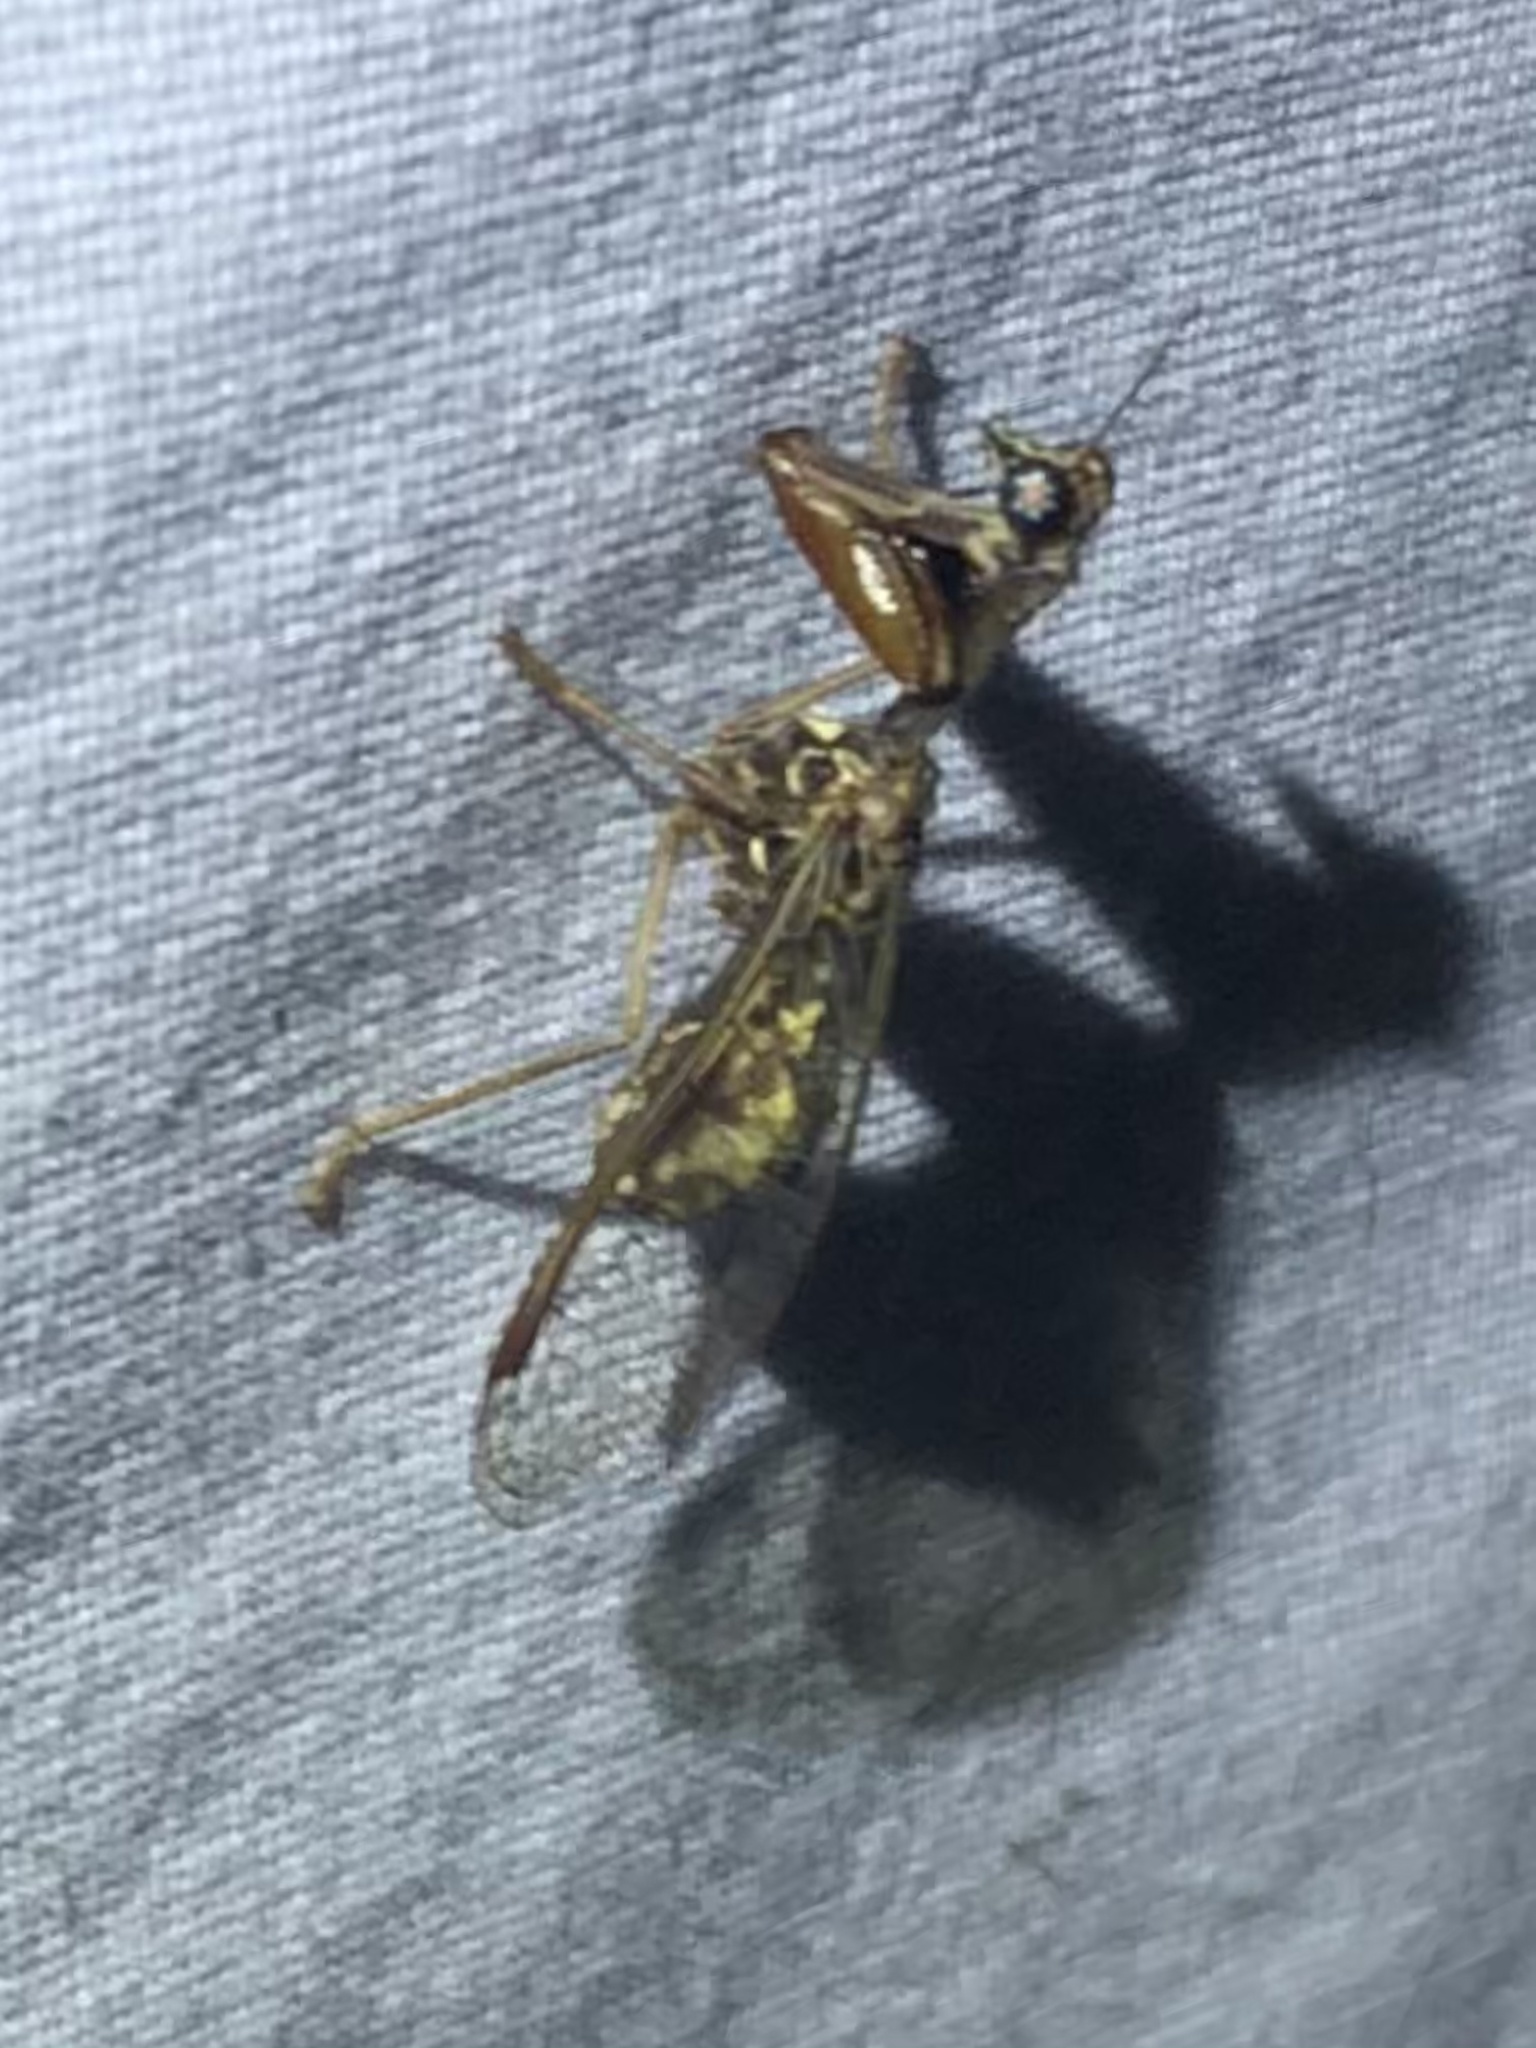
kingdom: Animalia
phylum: Arthropoda
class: Insecta
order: Neuroptera
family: Mantispidae
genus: Dicromantispa
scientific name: Dicromantispa sayi
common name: Say's mantidfly
